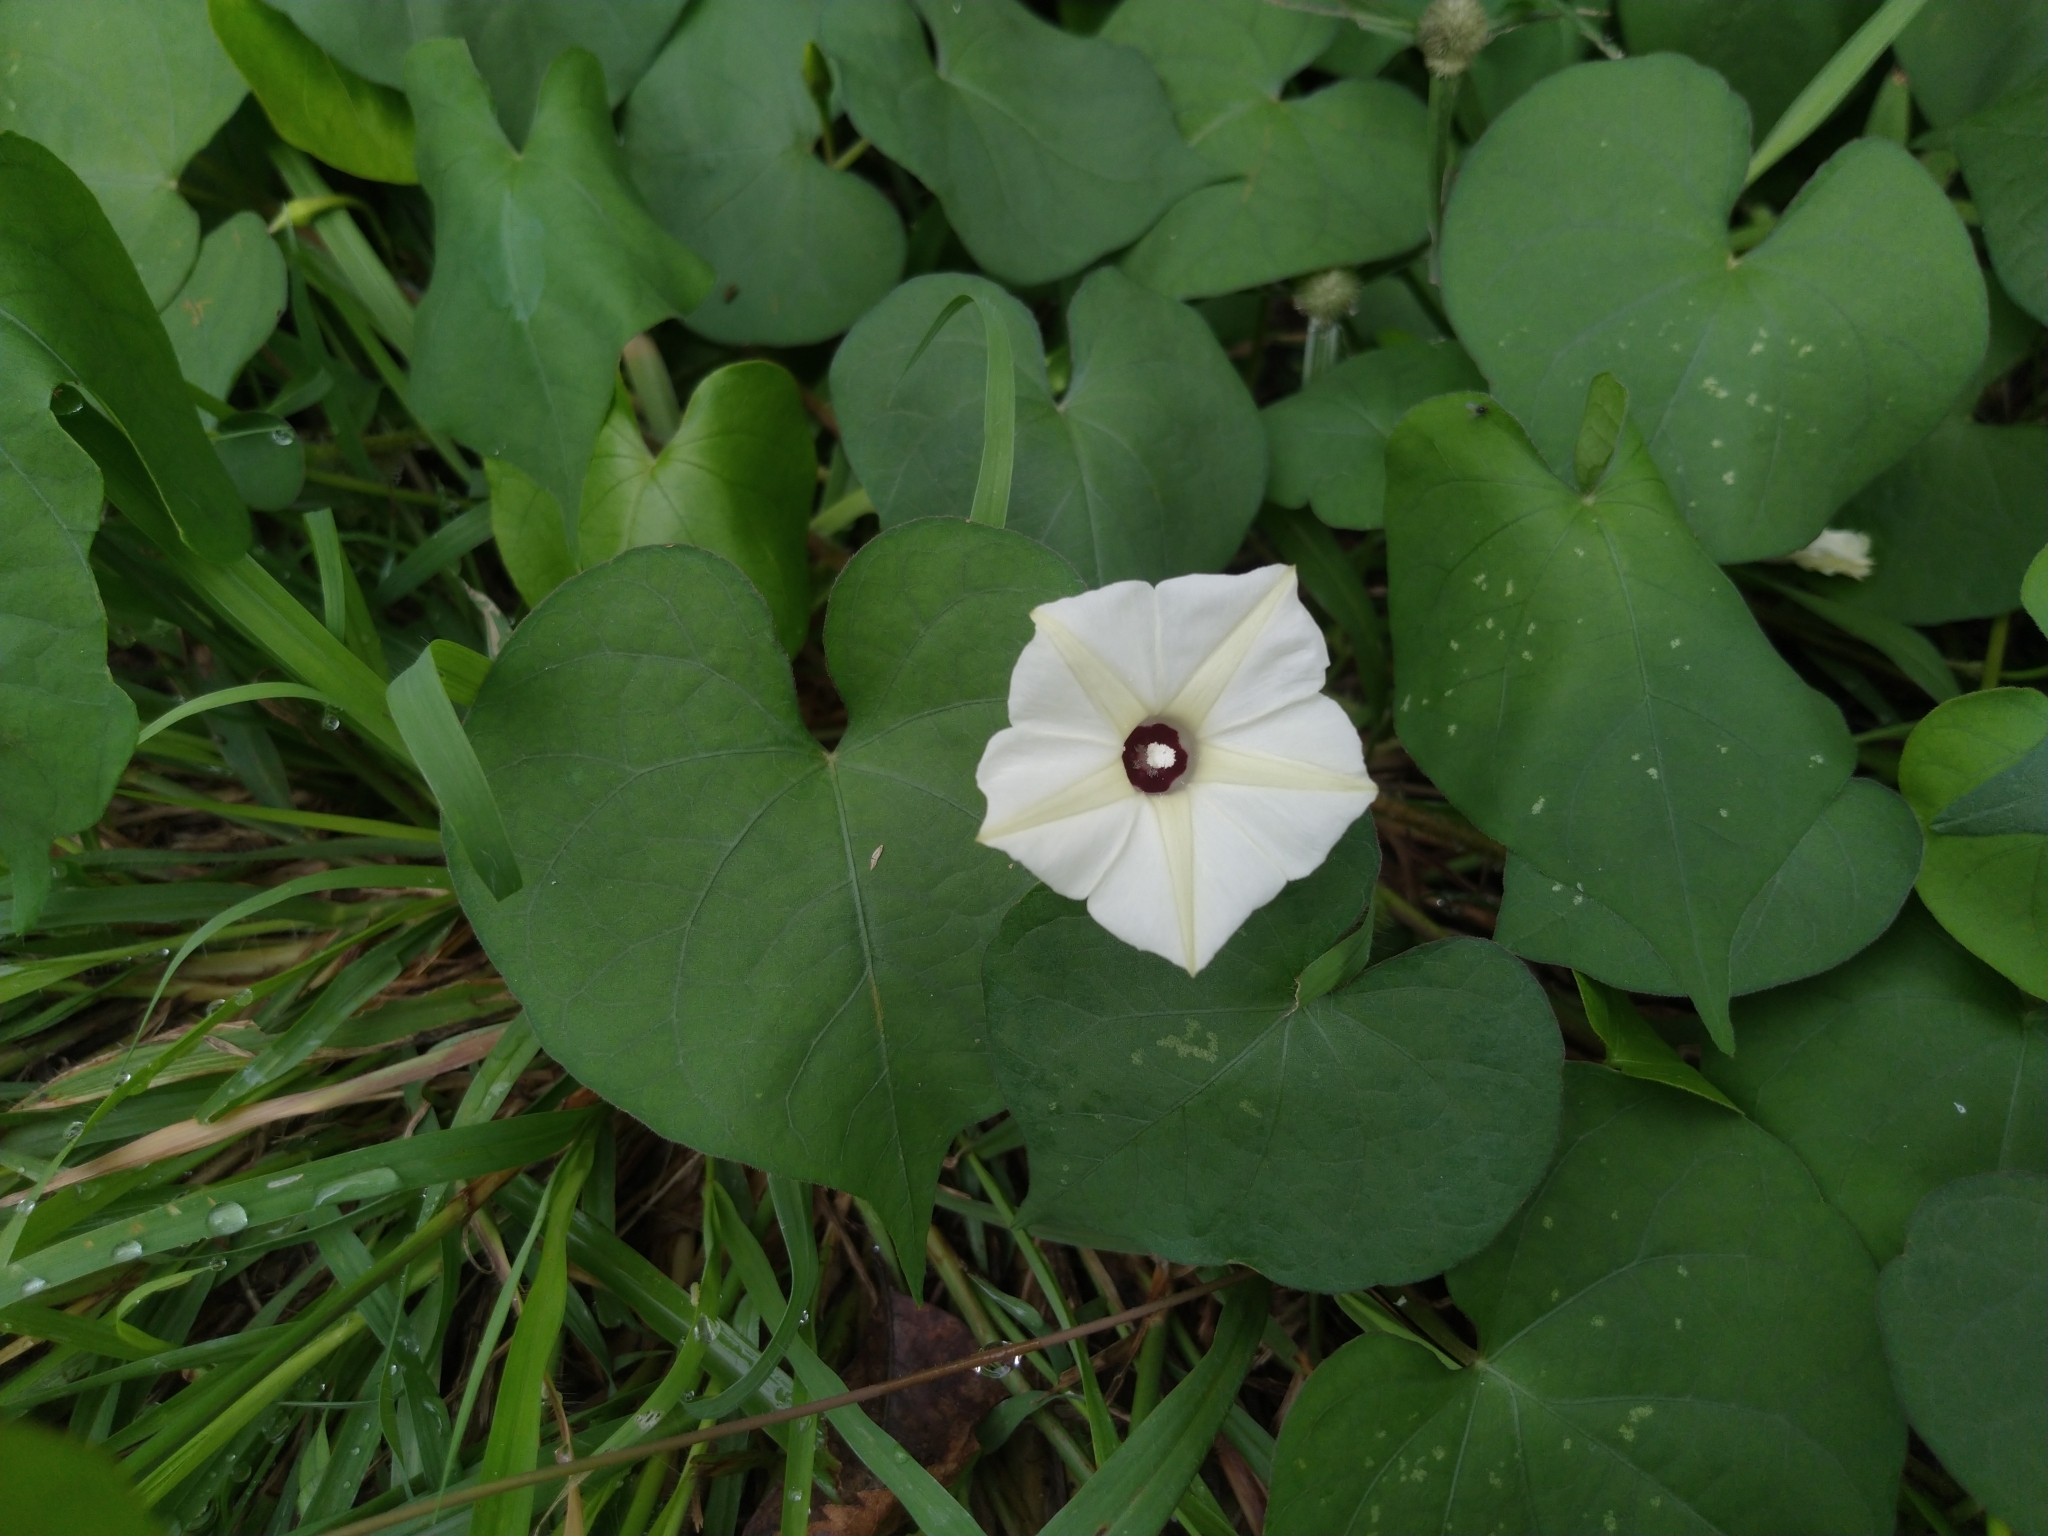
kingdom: Plantae
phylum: Tracheophyta
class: Magnoliopsida
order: Solanales
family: Convolvulaceae
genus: Ipomoea
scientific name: Ipomoea obscura
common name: Obscure morning-glory
